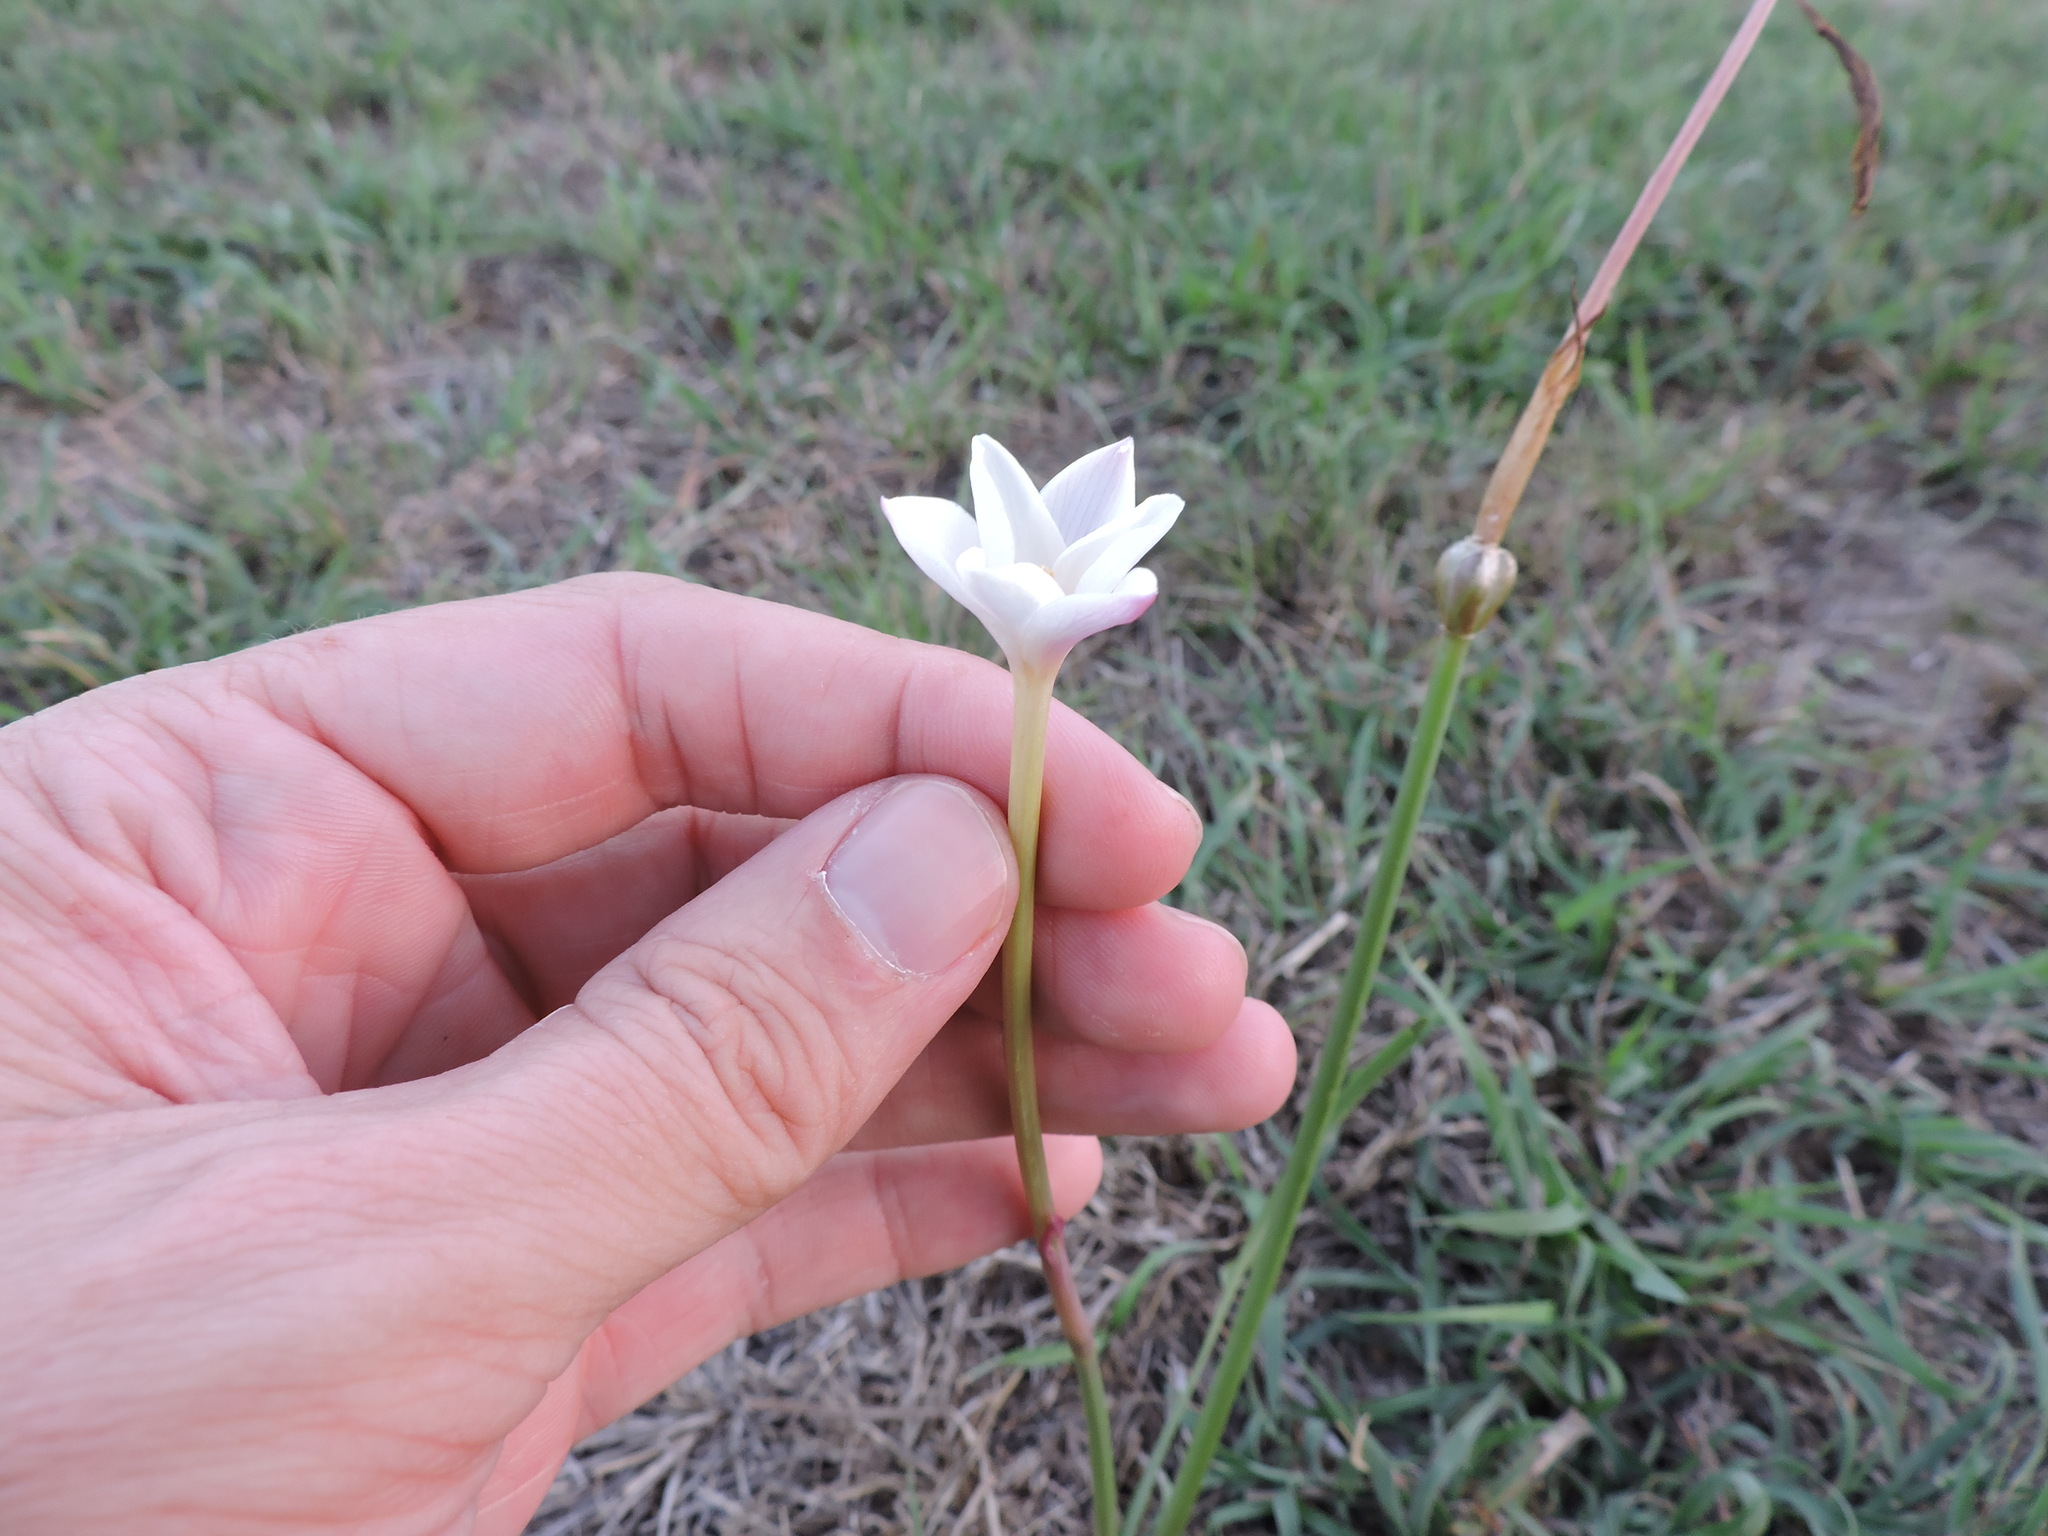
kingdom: Plantae
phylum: Tracheophyta
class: Liliopsida
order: Asparagales
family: Amaryllidaceae
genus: Zephyranthes
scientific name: Zephyranthes chlorosolen
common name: Evening rain-lily
